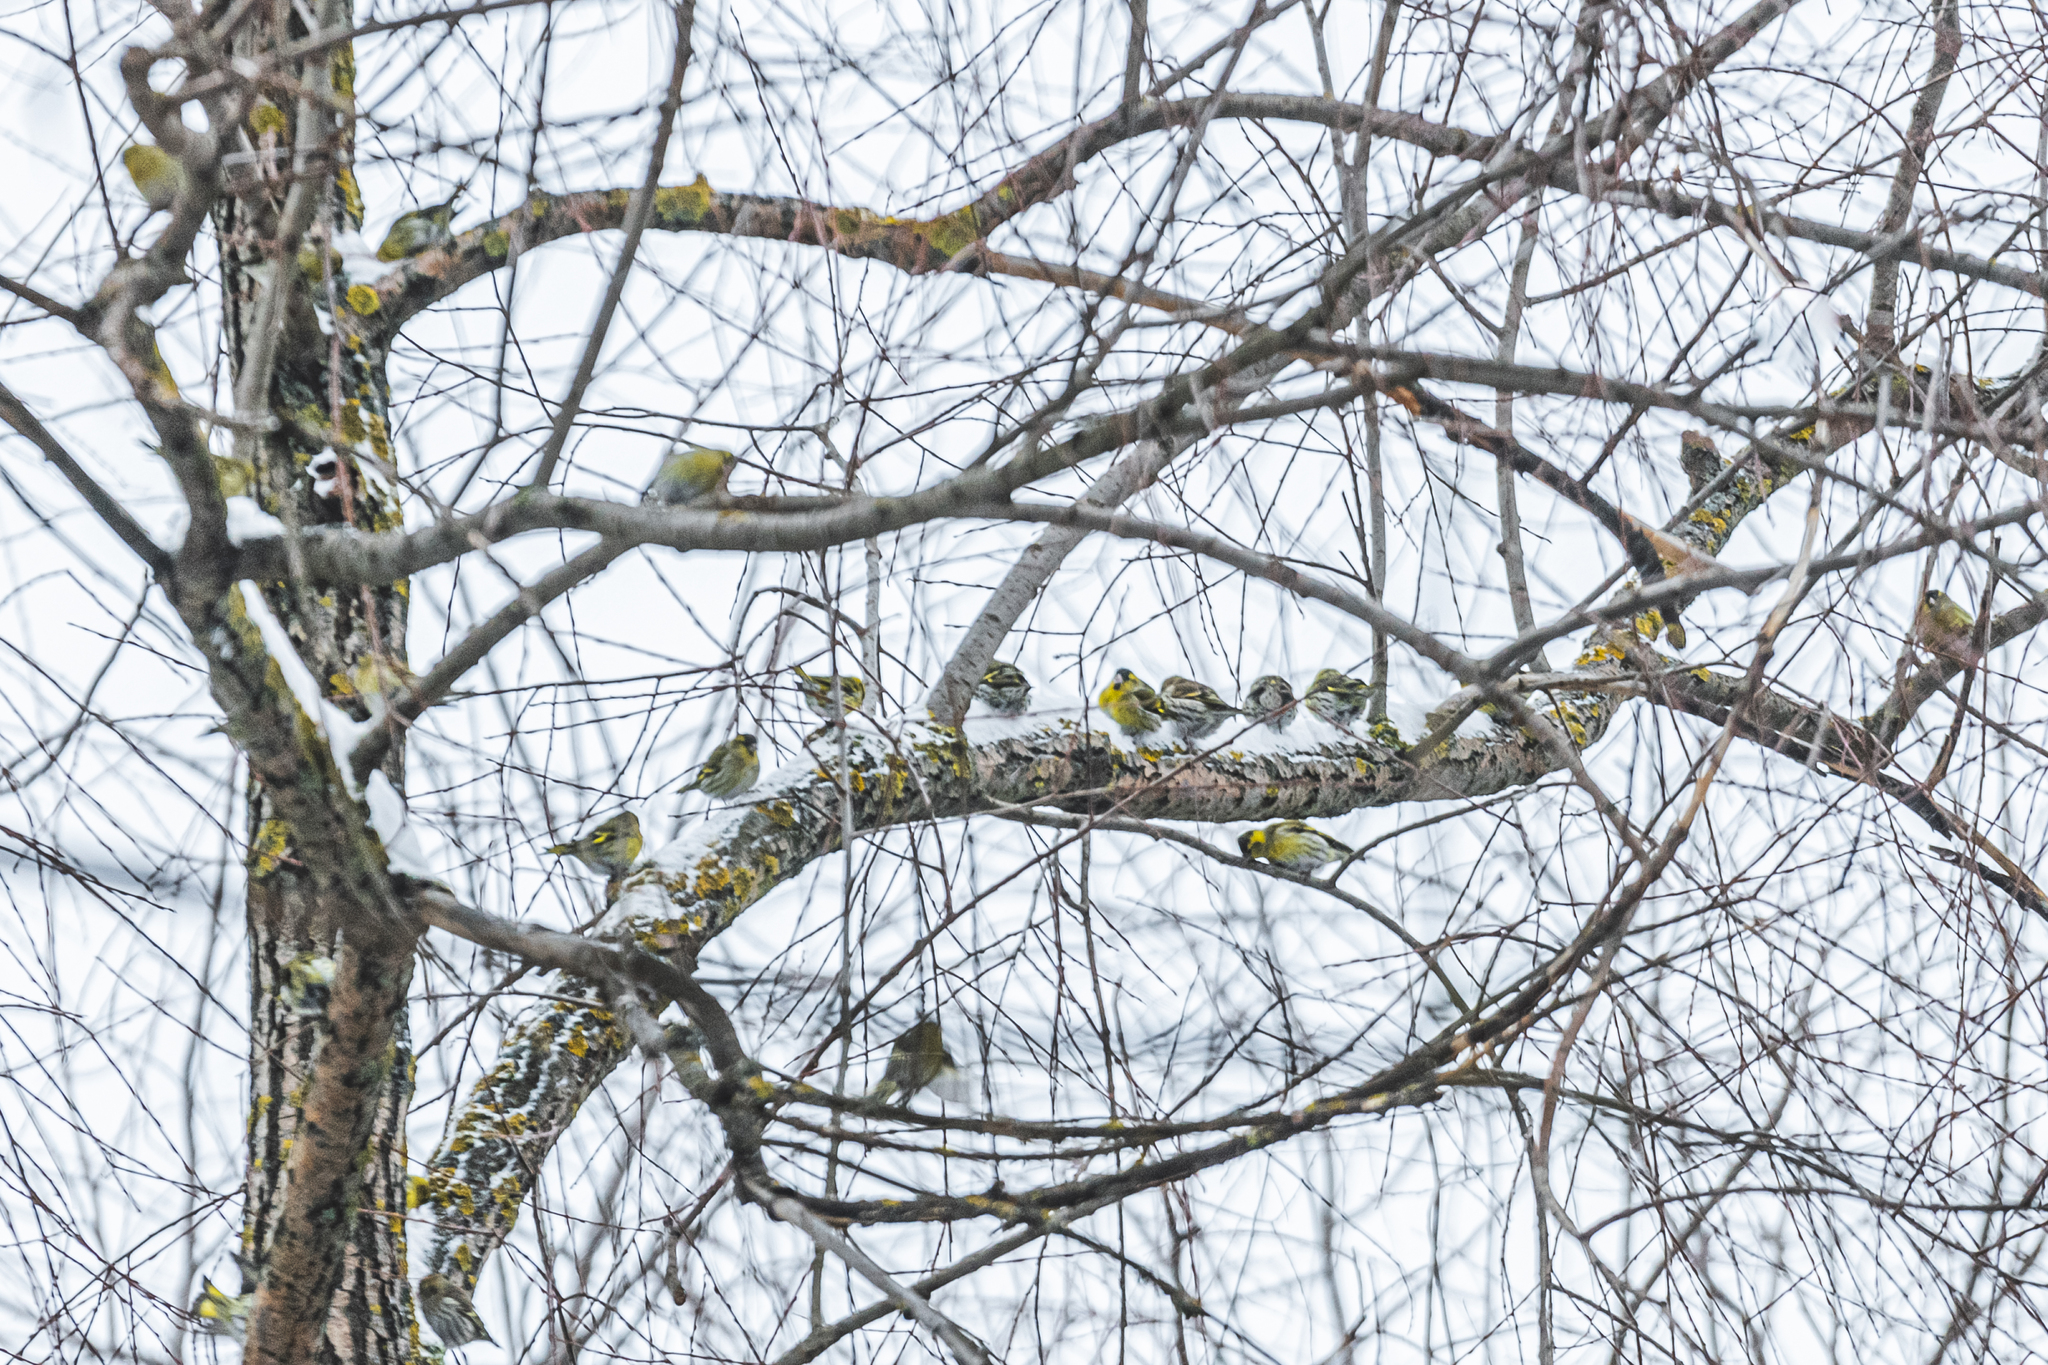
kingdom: Animalia
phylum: Chordata
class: Aves
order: Passeriformes
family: Fringillidae
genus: Spinus
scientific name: Spinus spinus
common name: Eurasian siskin
